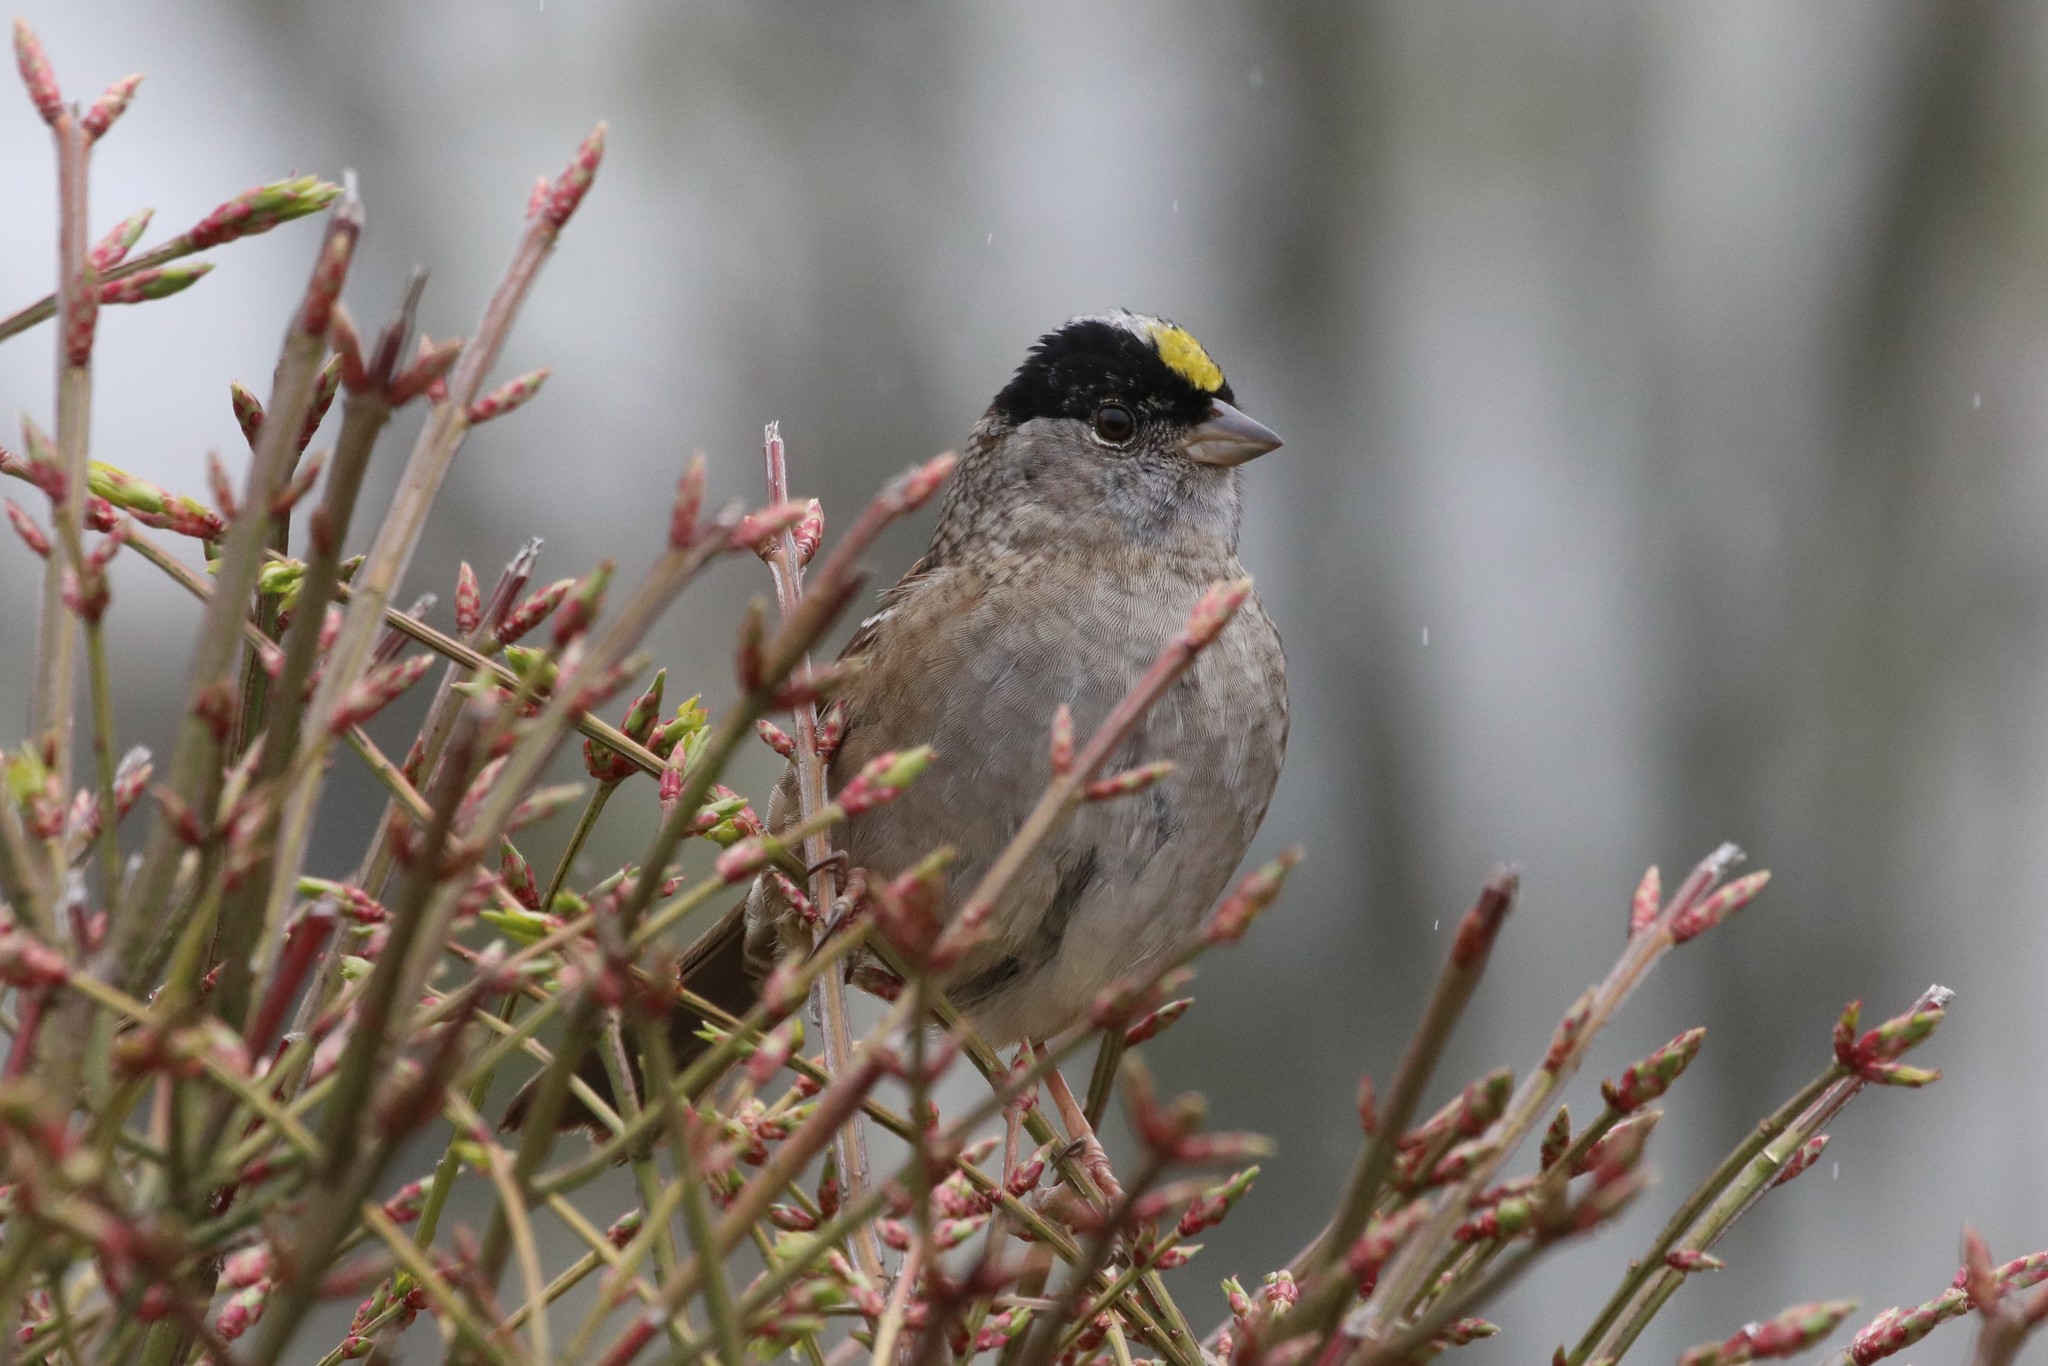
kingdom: Animalia
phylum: Chordata
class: Aves
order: Passeriformes
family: Passerellidae
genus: Zonotrichia
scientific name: Zonotrichia atricapilla
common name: Golden-crowned sparrow
